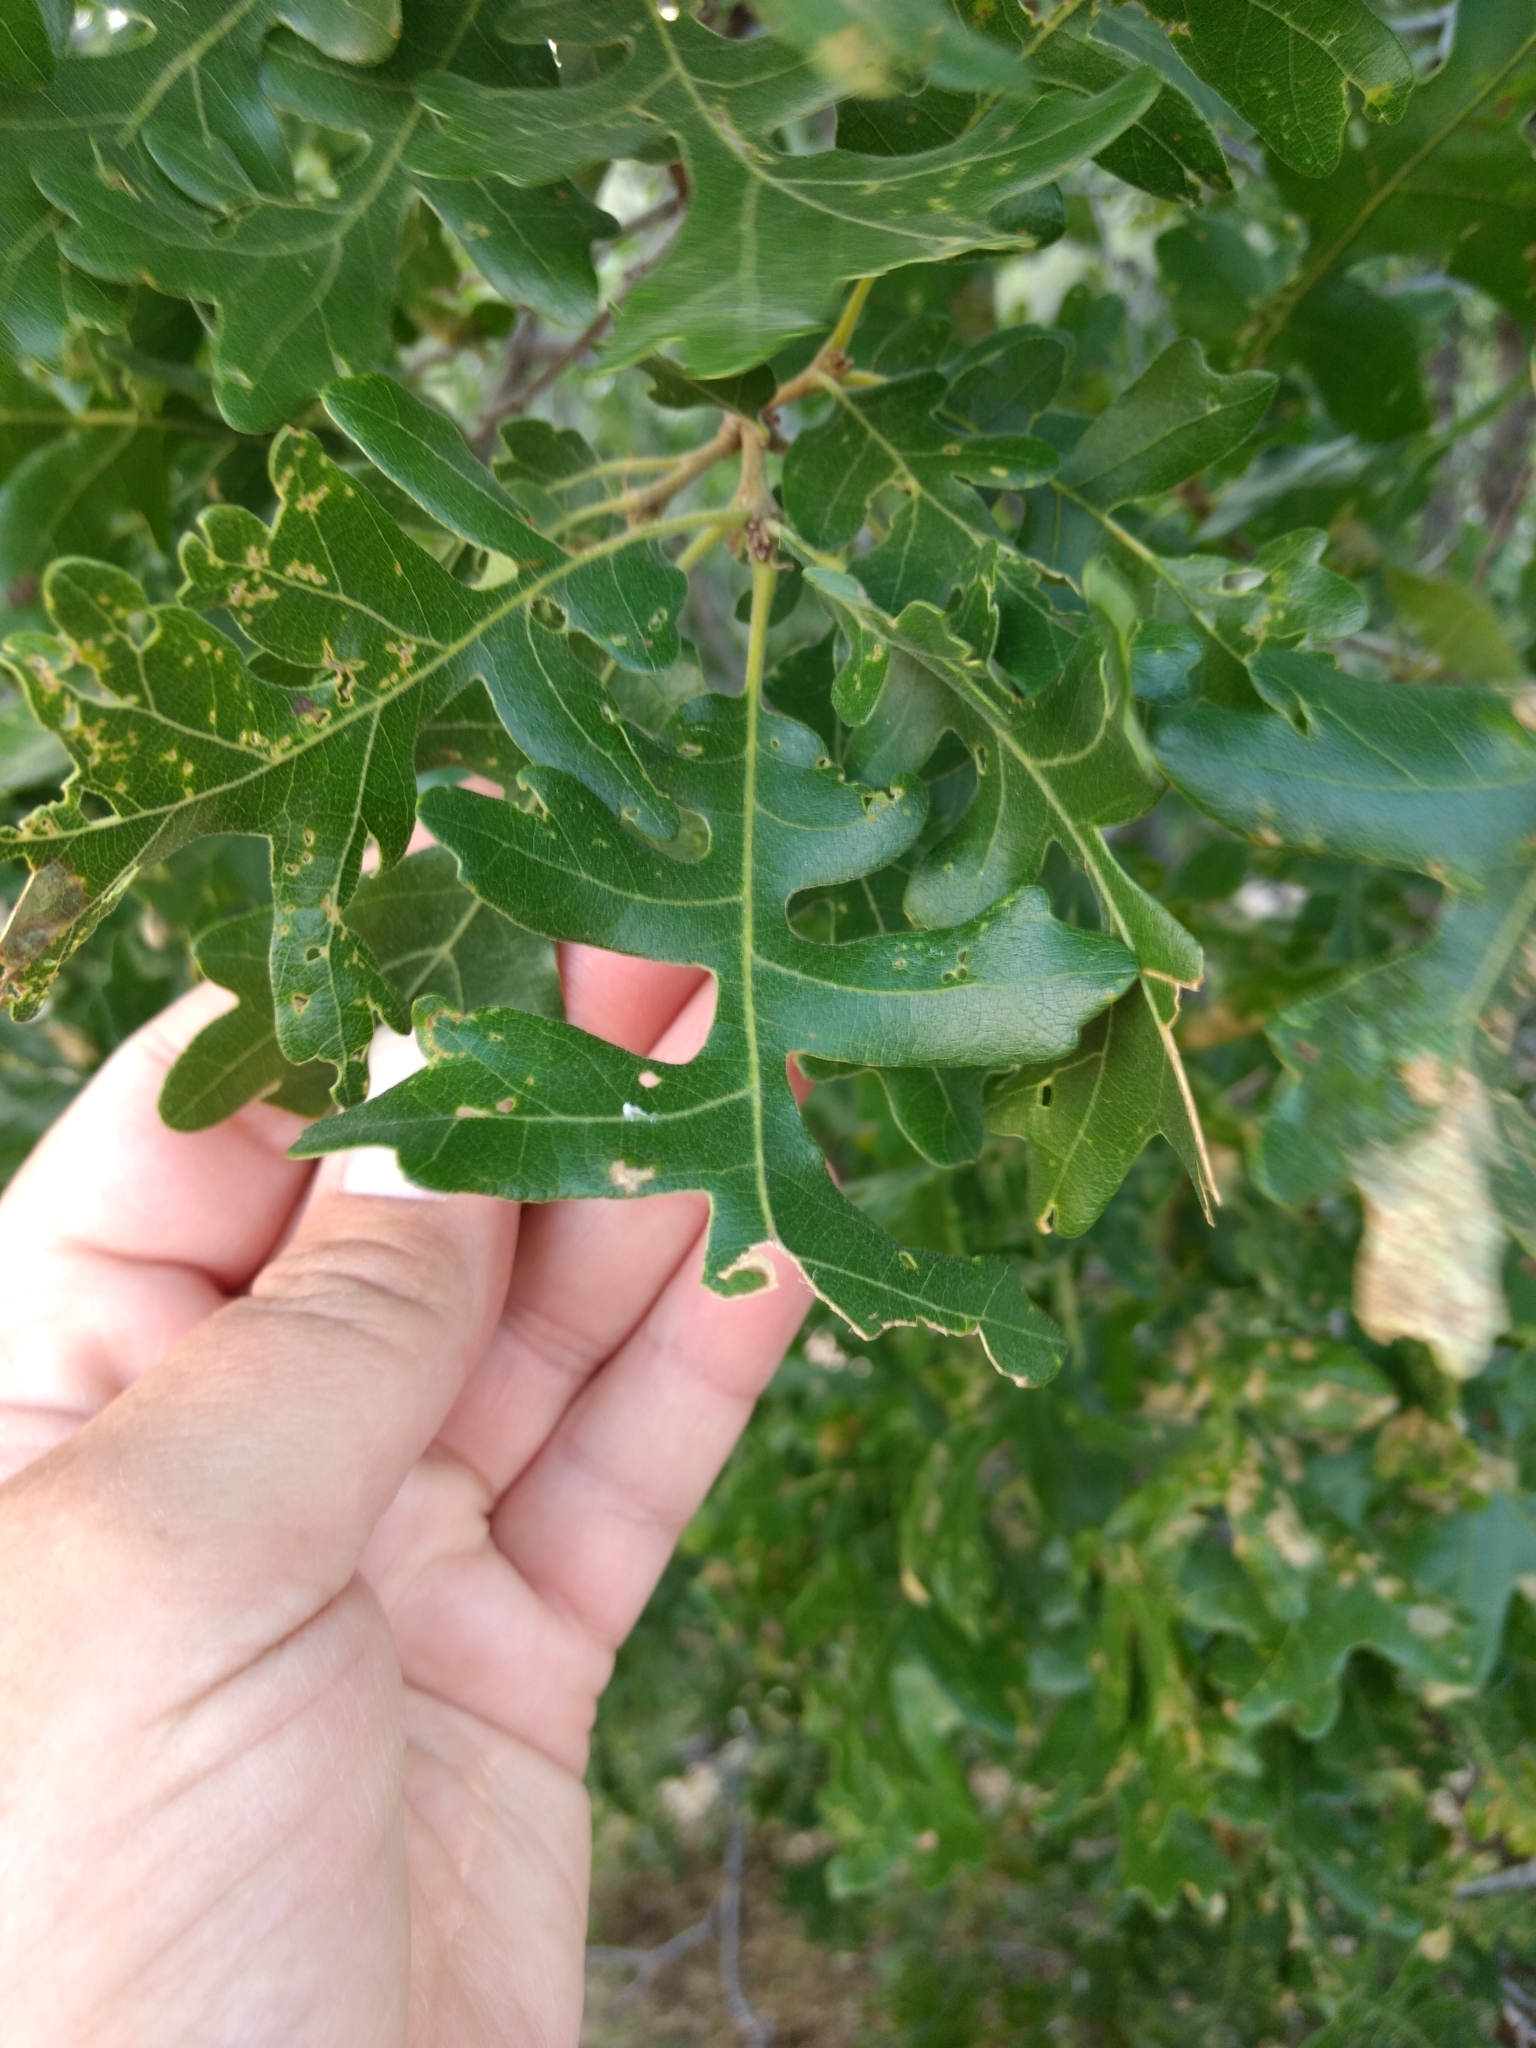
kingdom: Plantae
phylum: Tracheophyta
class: Magnoliopsida
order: Fagales
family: Fagaceae
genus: Quercus
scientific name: Quercus gambelii
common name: Gambel oak
